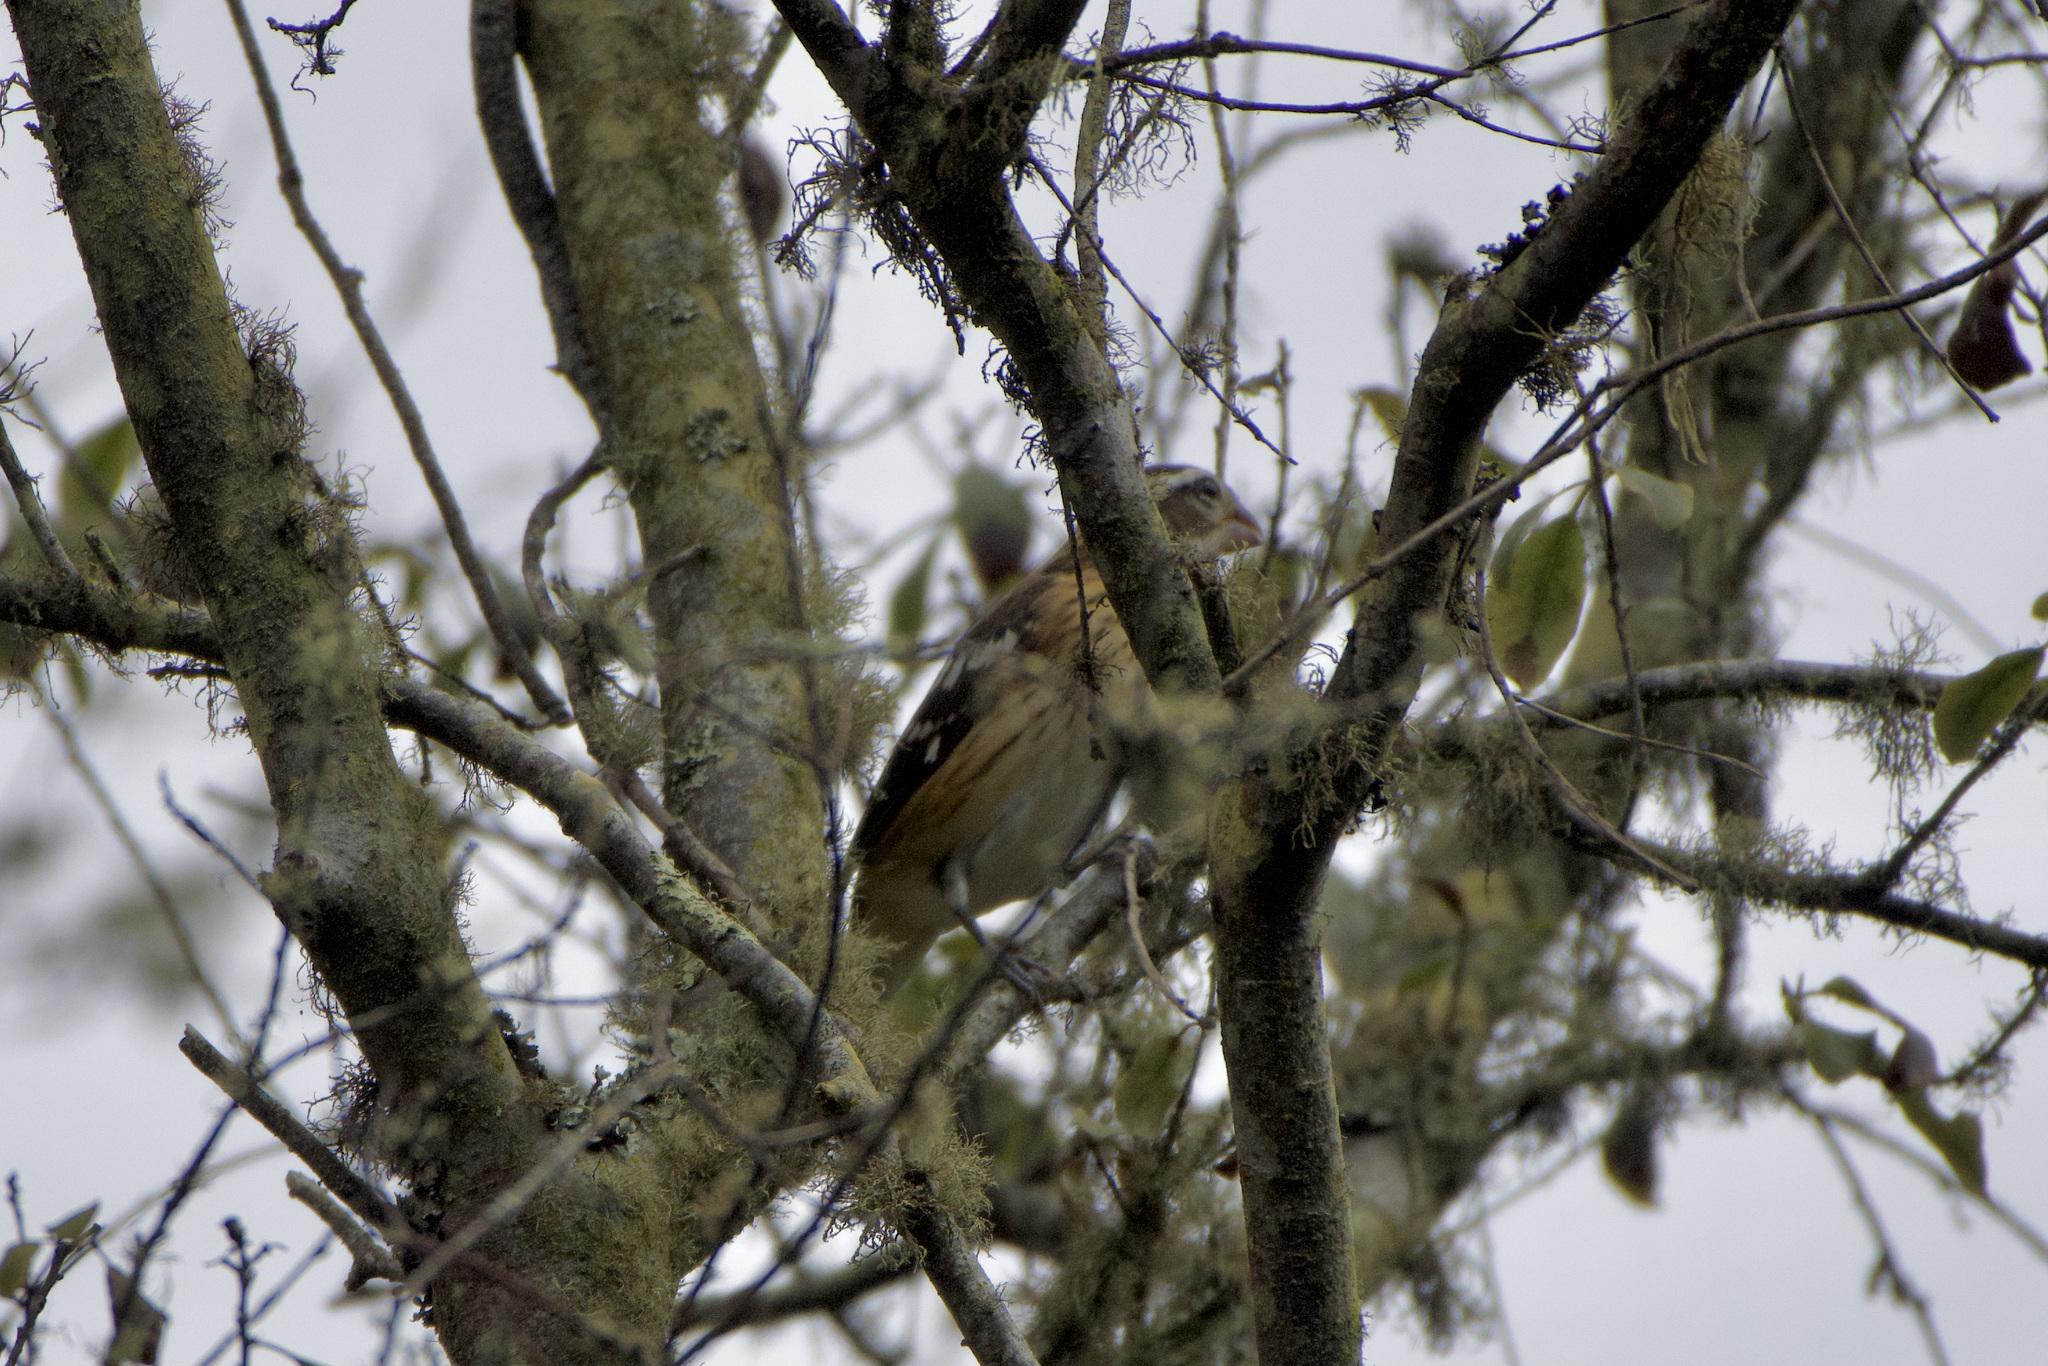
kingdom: Animalia
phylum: Chordata
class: Aves
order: Passeriformes
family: Cardinalidae
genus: Pheucticus
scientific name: Pheucticus ludovicianus
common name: Rose-breasted grosbeak
